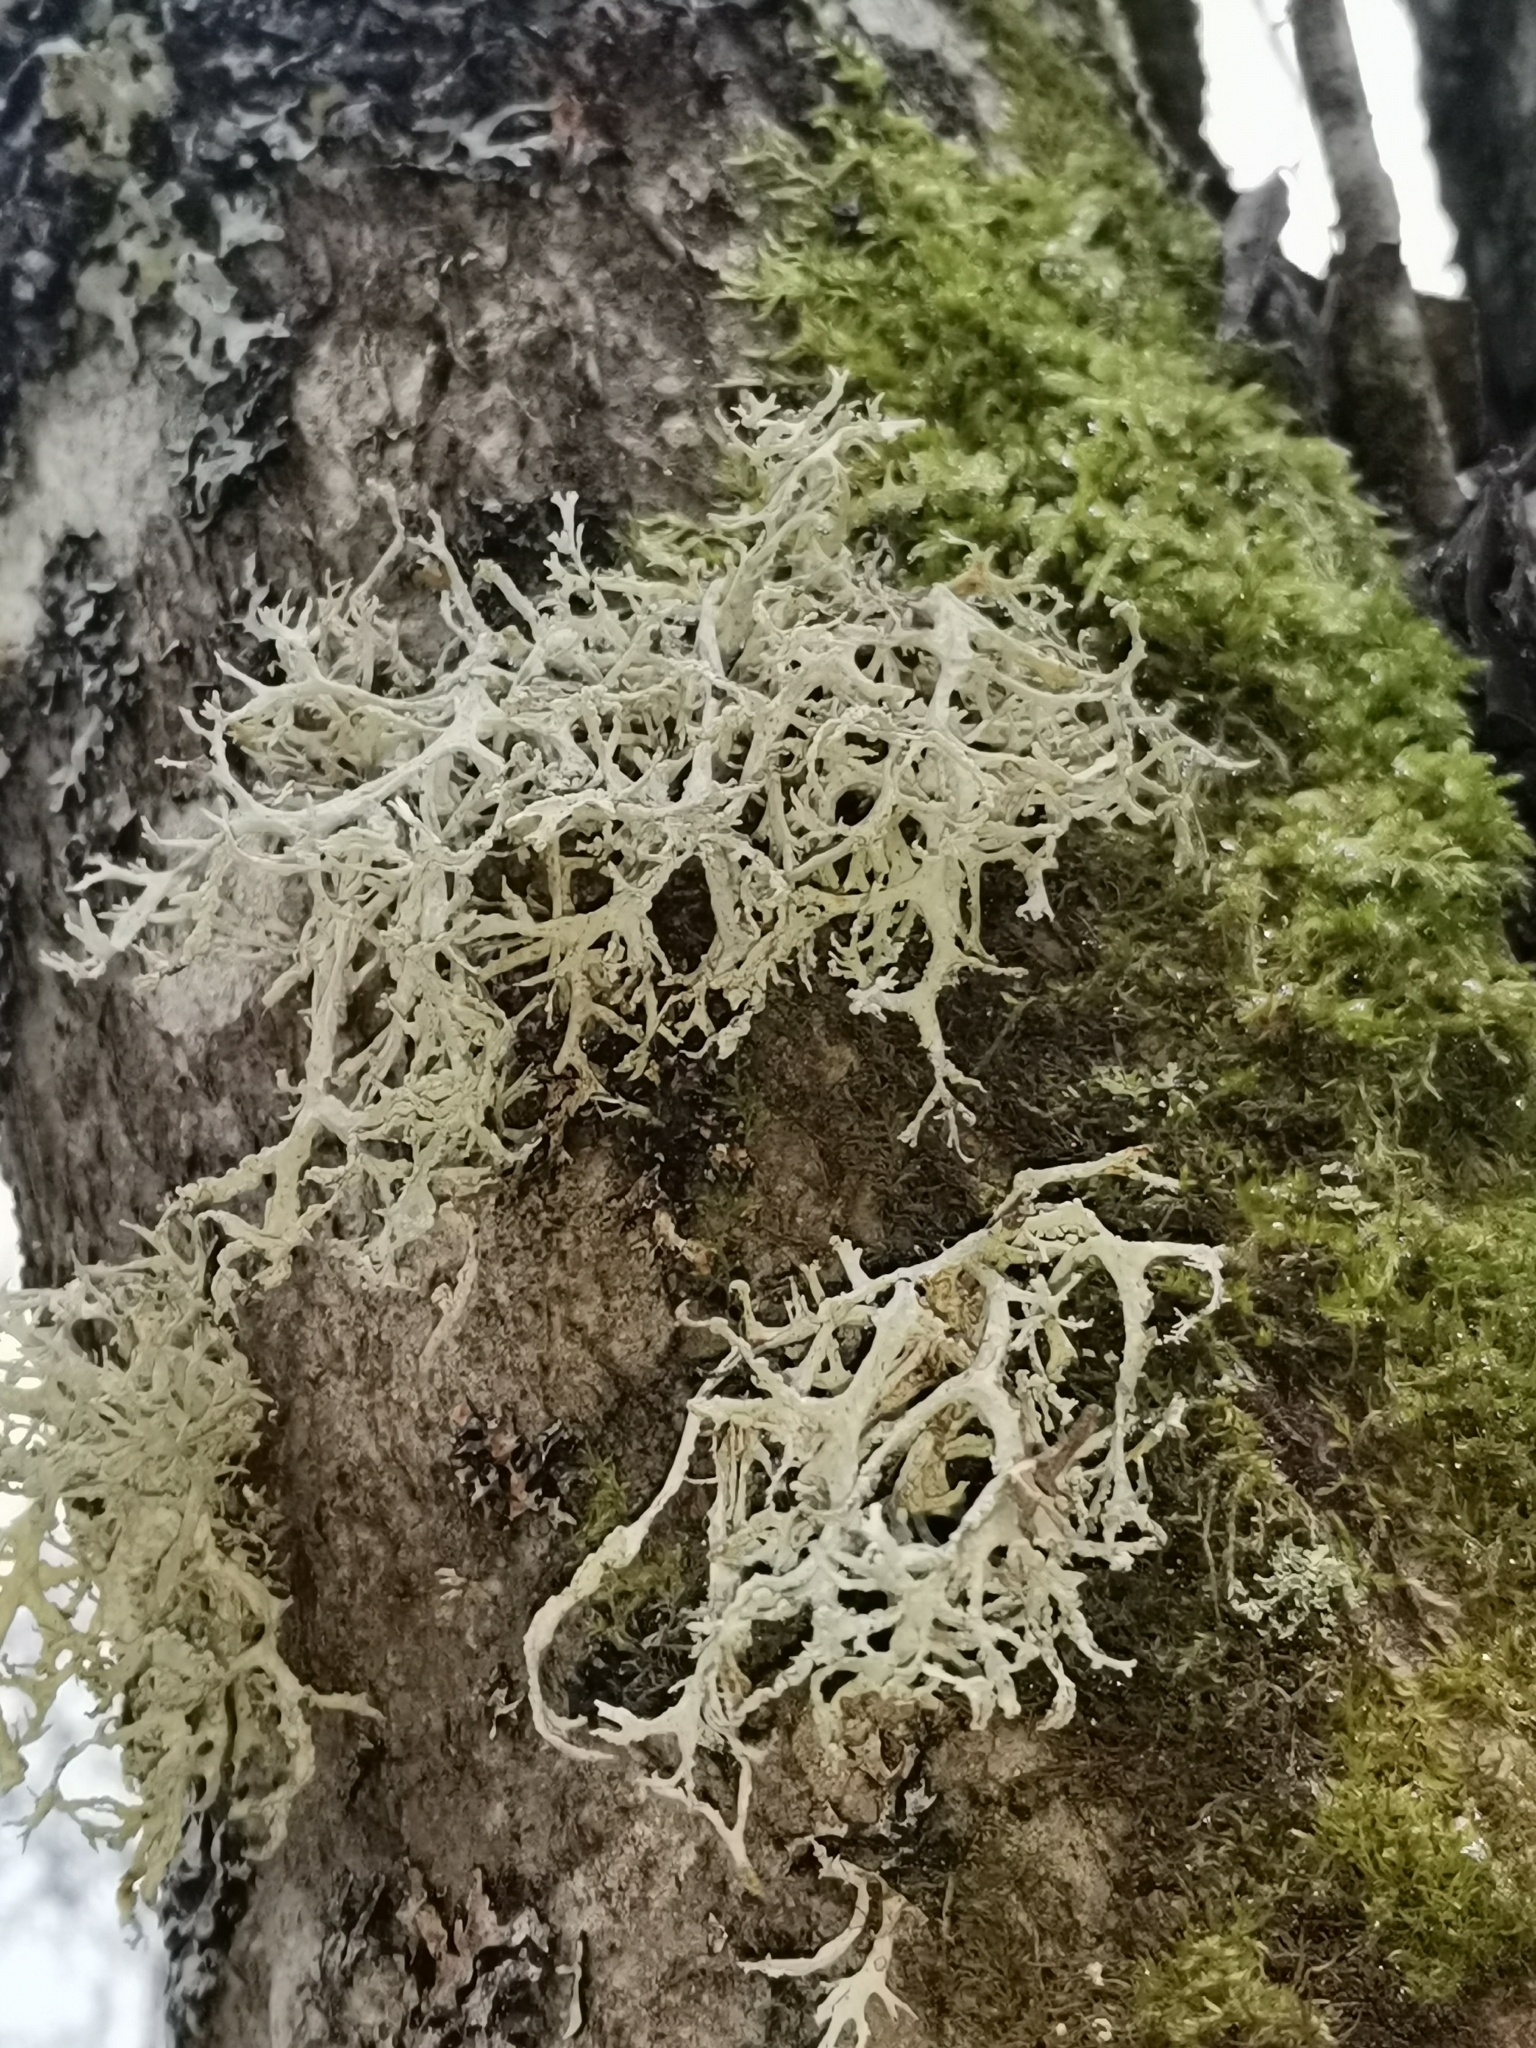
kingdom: Fungi
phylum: Ascomycota
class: Lecanoromycetes
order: Lecanorales
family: Parmeliaceae
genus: Evernia
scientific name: Evernia prunastri
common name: Oak moss
